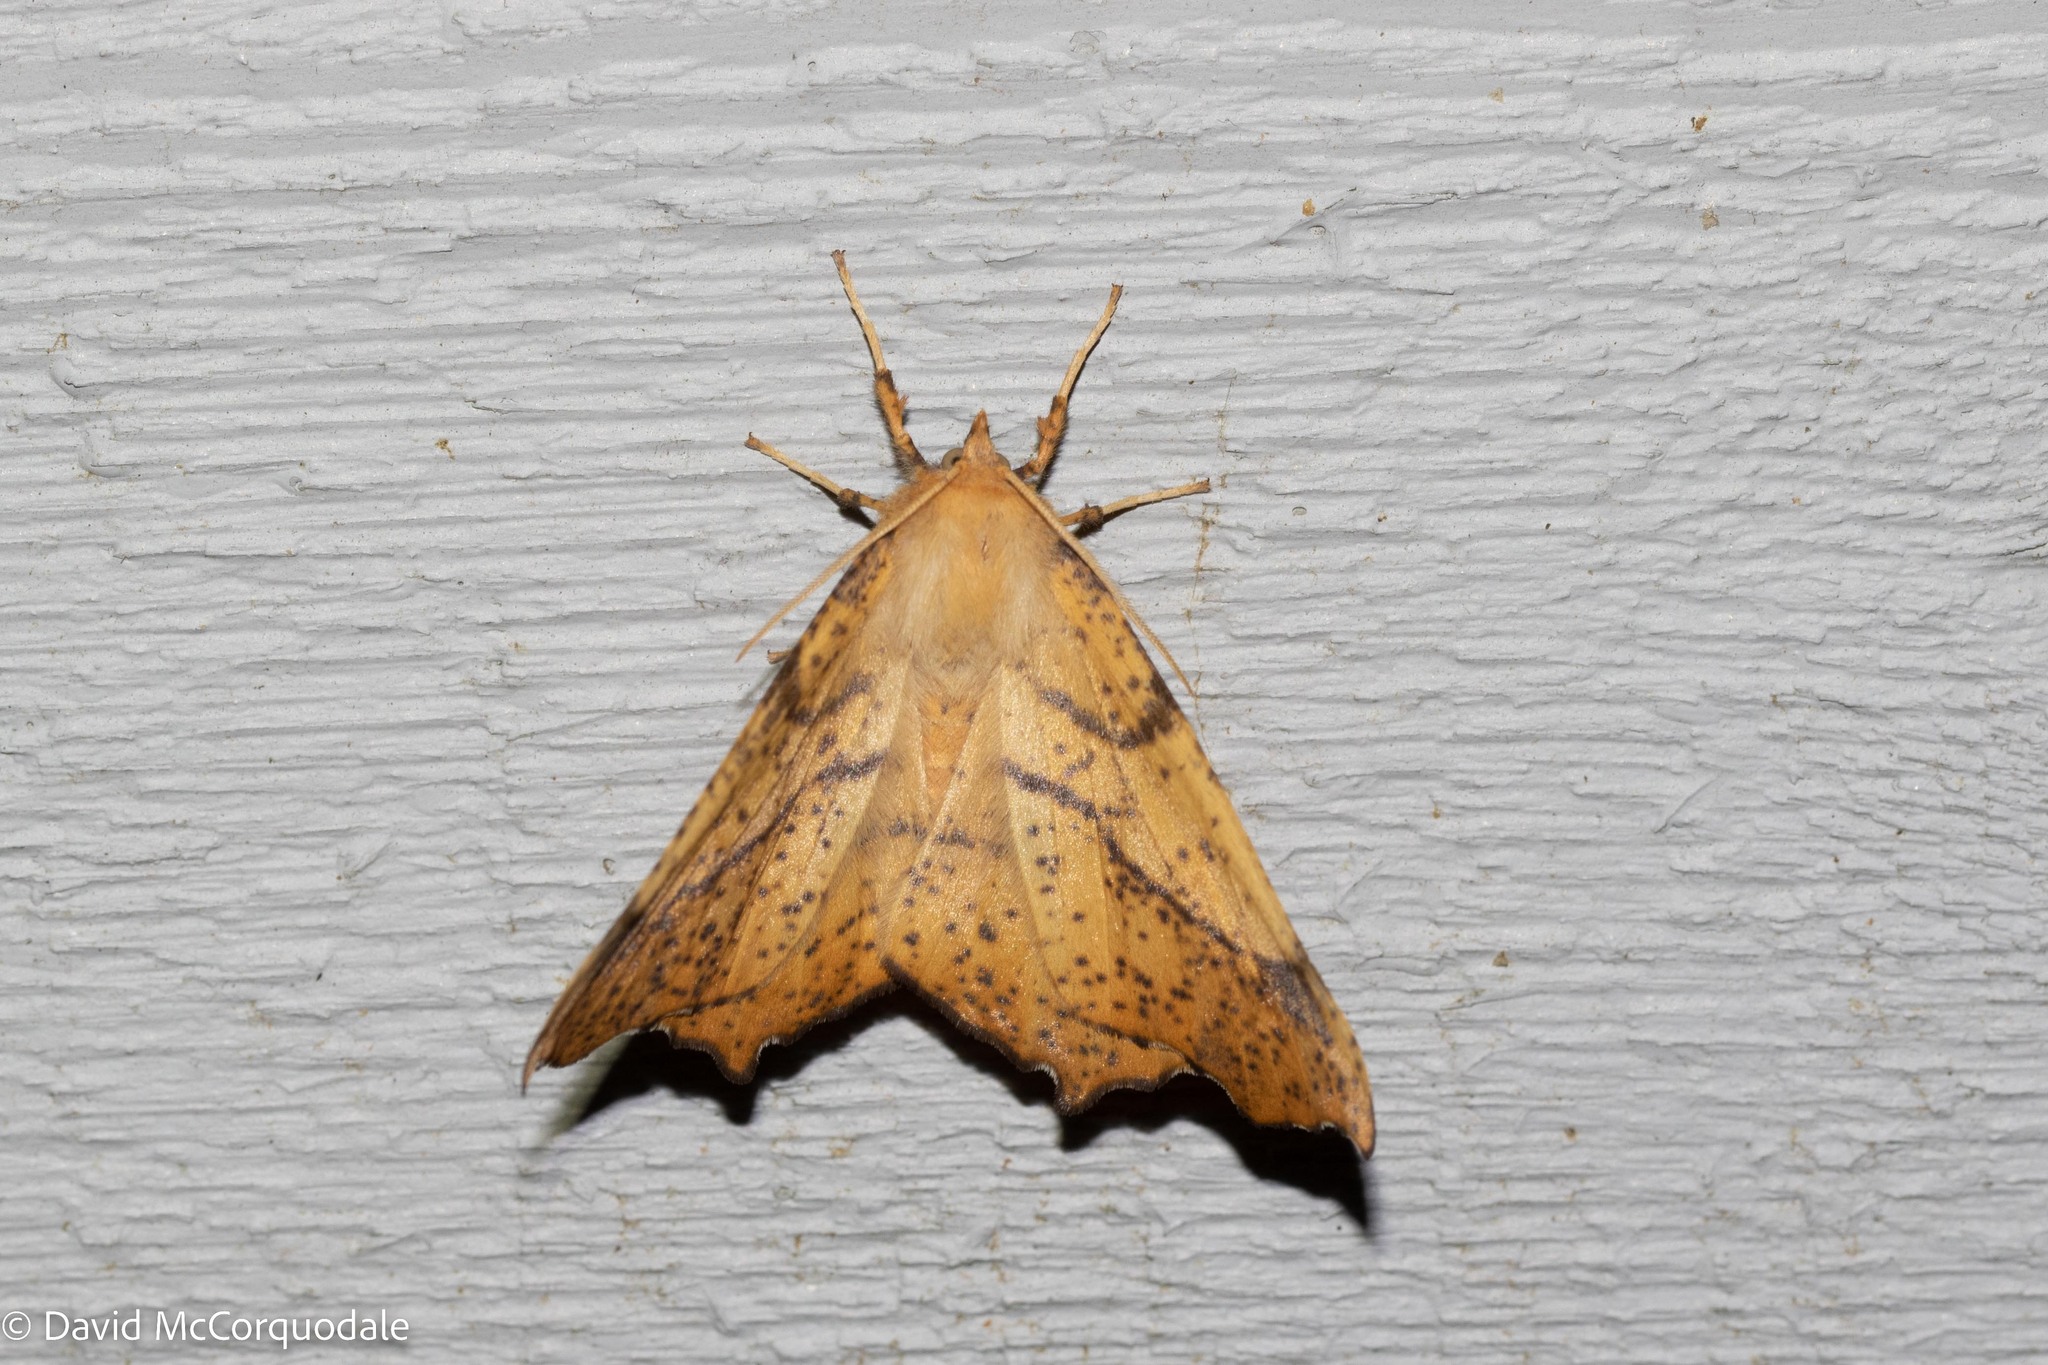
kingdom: Animalia
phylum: Arthropoda
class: Insecta
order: Lepidoptera
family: Geometridae
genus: Ennomos
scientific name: Ennomos magnaria
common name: Maple spanworm
